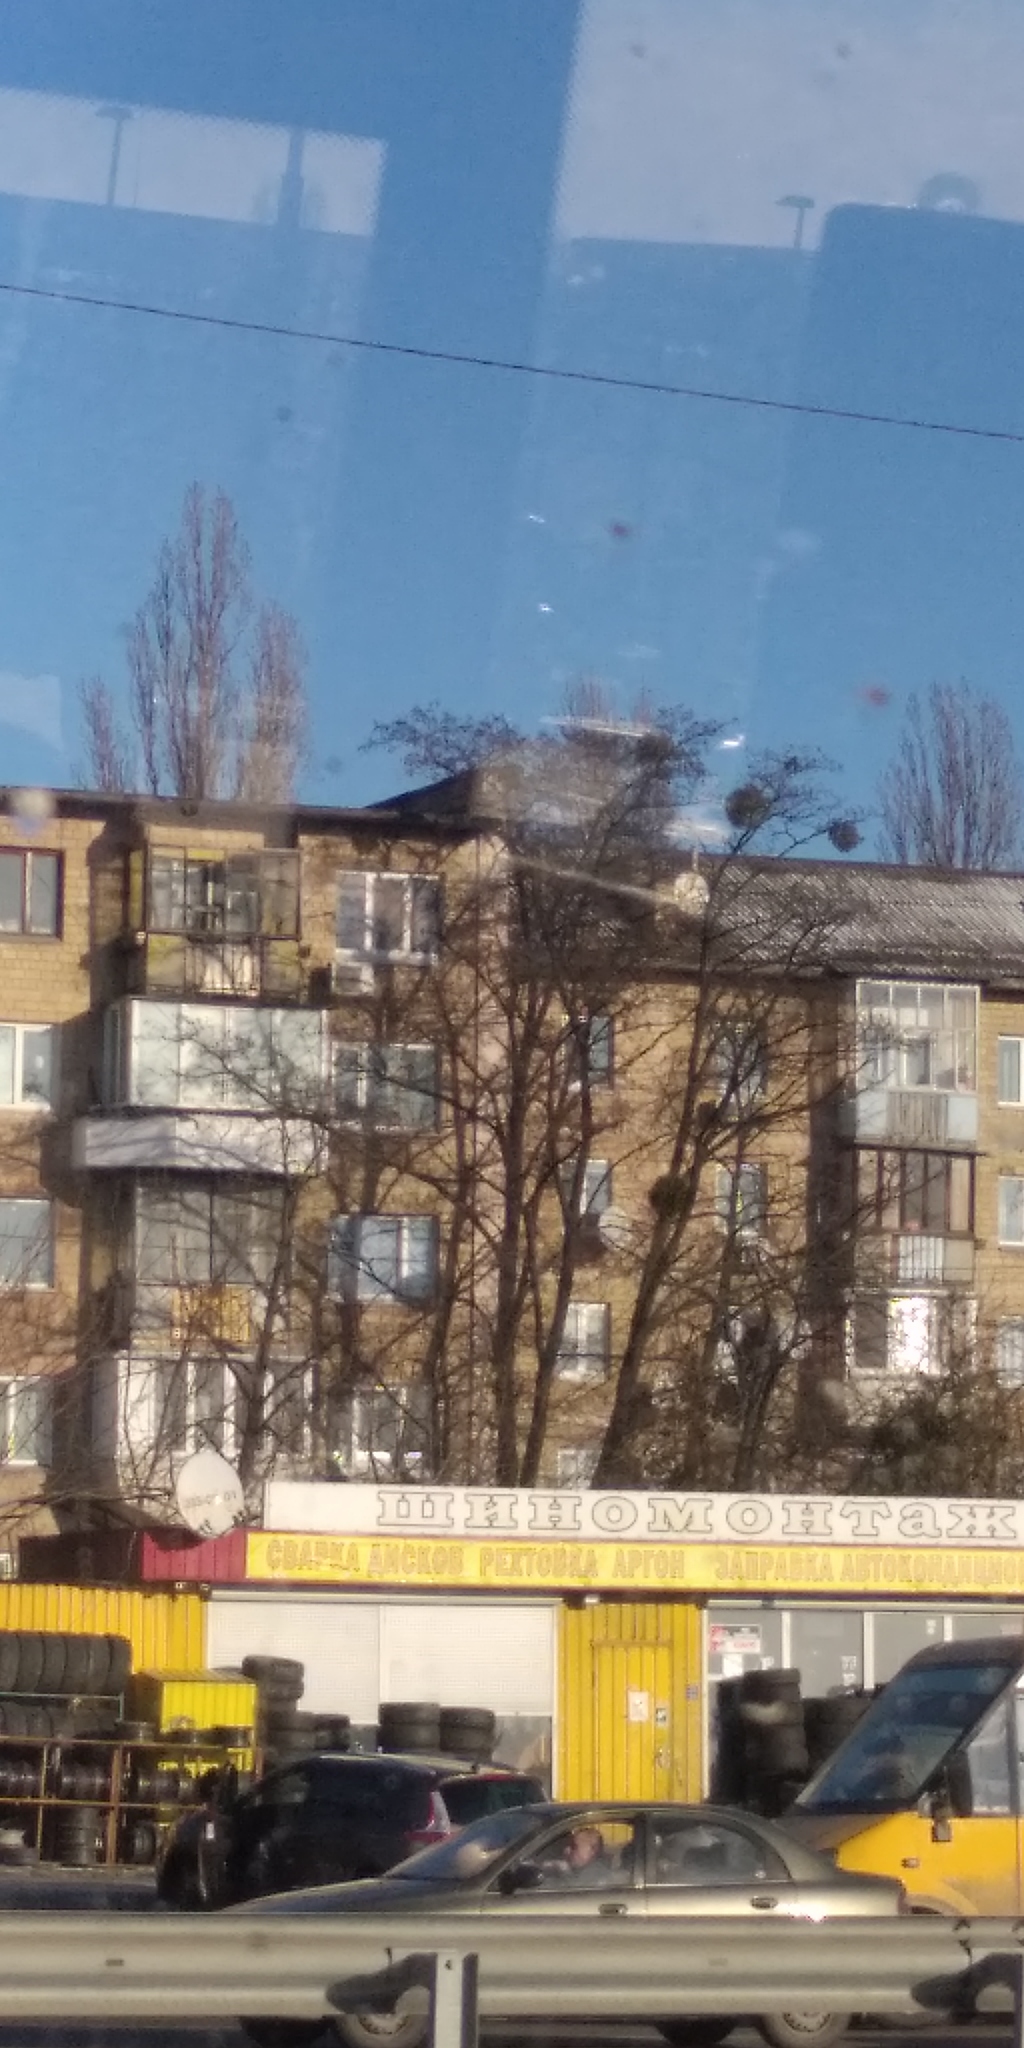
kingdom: Plantae
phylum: Tracheophyta
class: Magnoliopsida
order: Santalales
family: Viscaceae
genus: Viscum
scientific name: Viscum album
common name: Mistletoe
